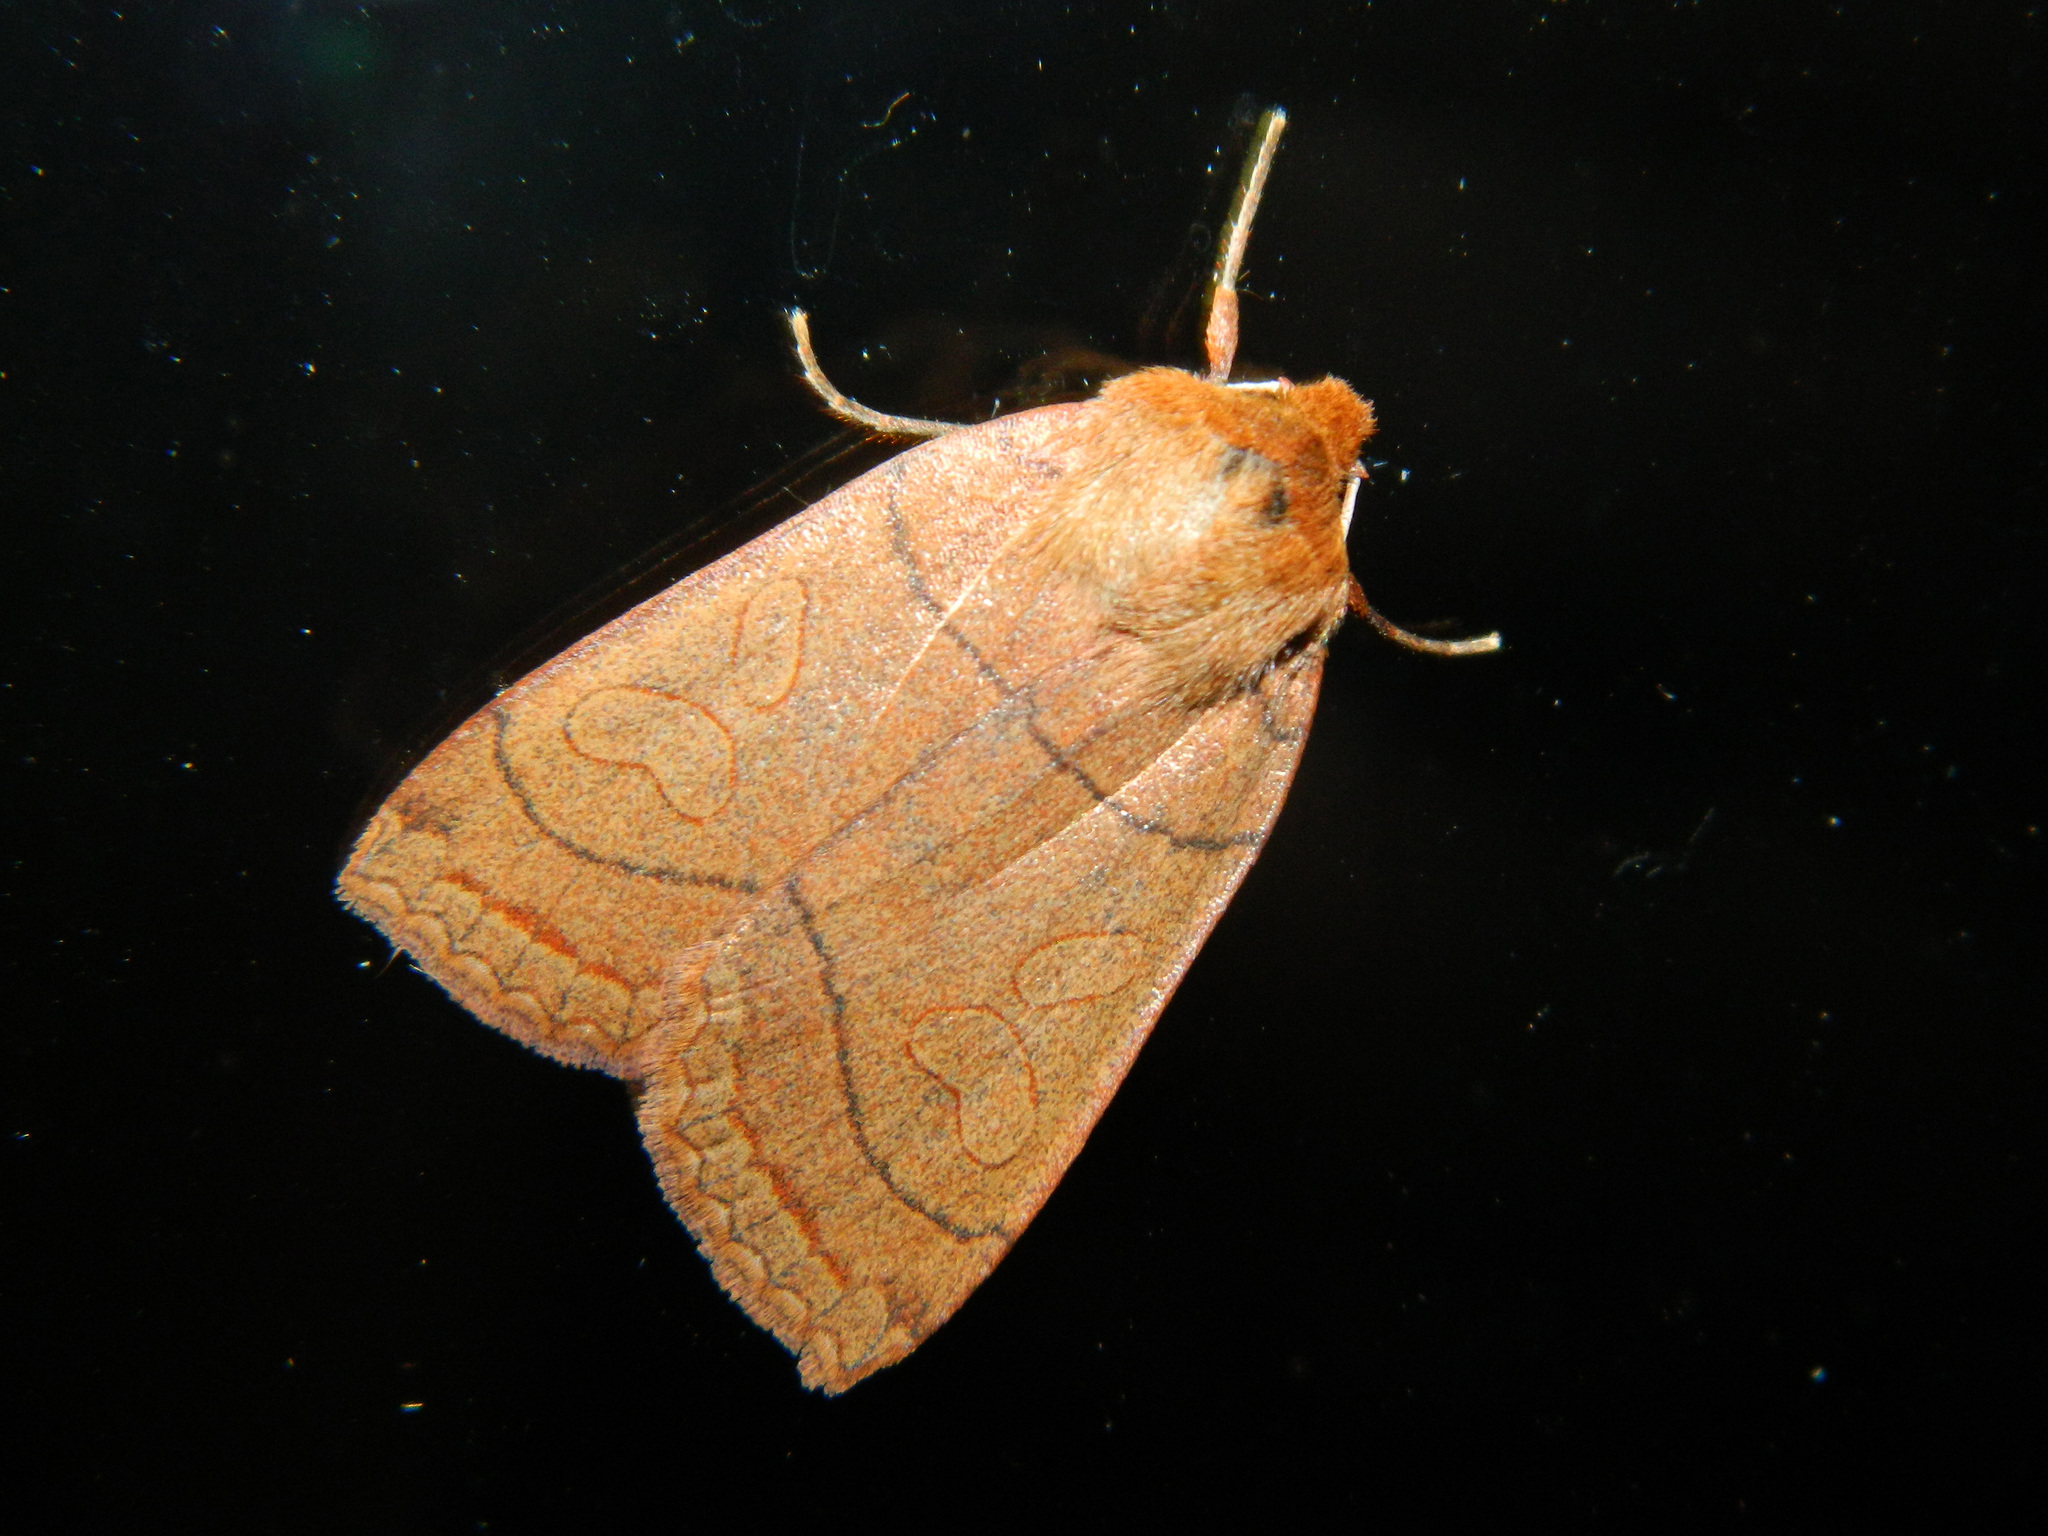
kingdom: Animalia
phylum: Arthropoda
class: Insecta
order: Lepidoptera
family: Noctuidae
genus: Metaxaglaea
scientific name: Metaxaglaea inulta
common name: Unsated sallow
